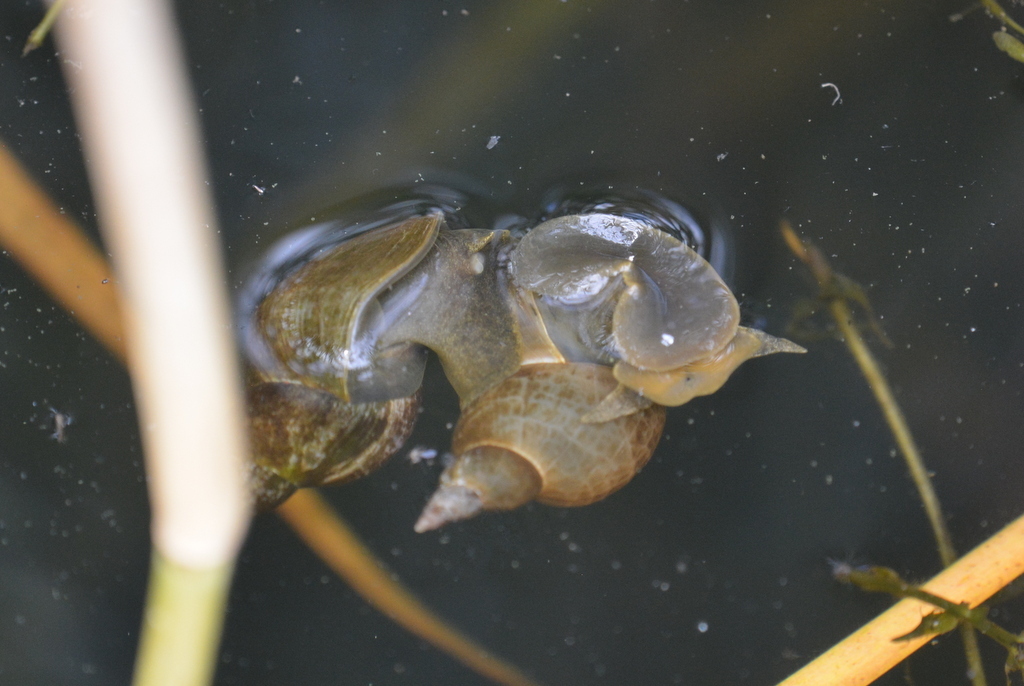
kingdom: Animalia
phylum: Mollusca
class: Gastropoda
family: Lymnaeidae
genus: Lymnaea
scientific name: Lymnaea stagnalis
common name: Great pond snail
